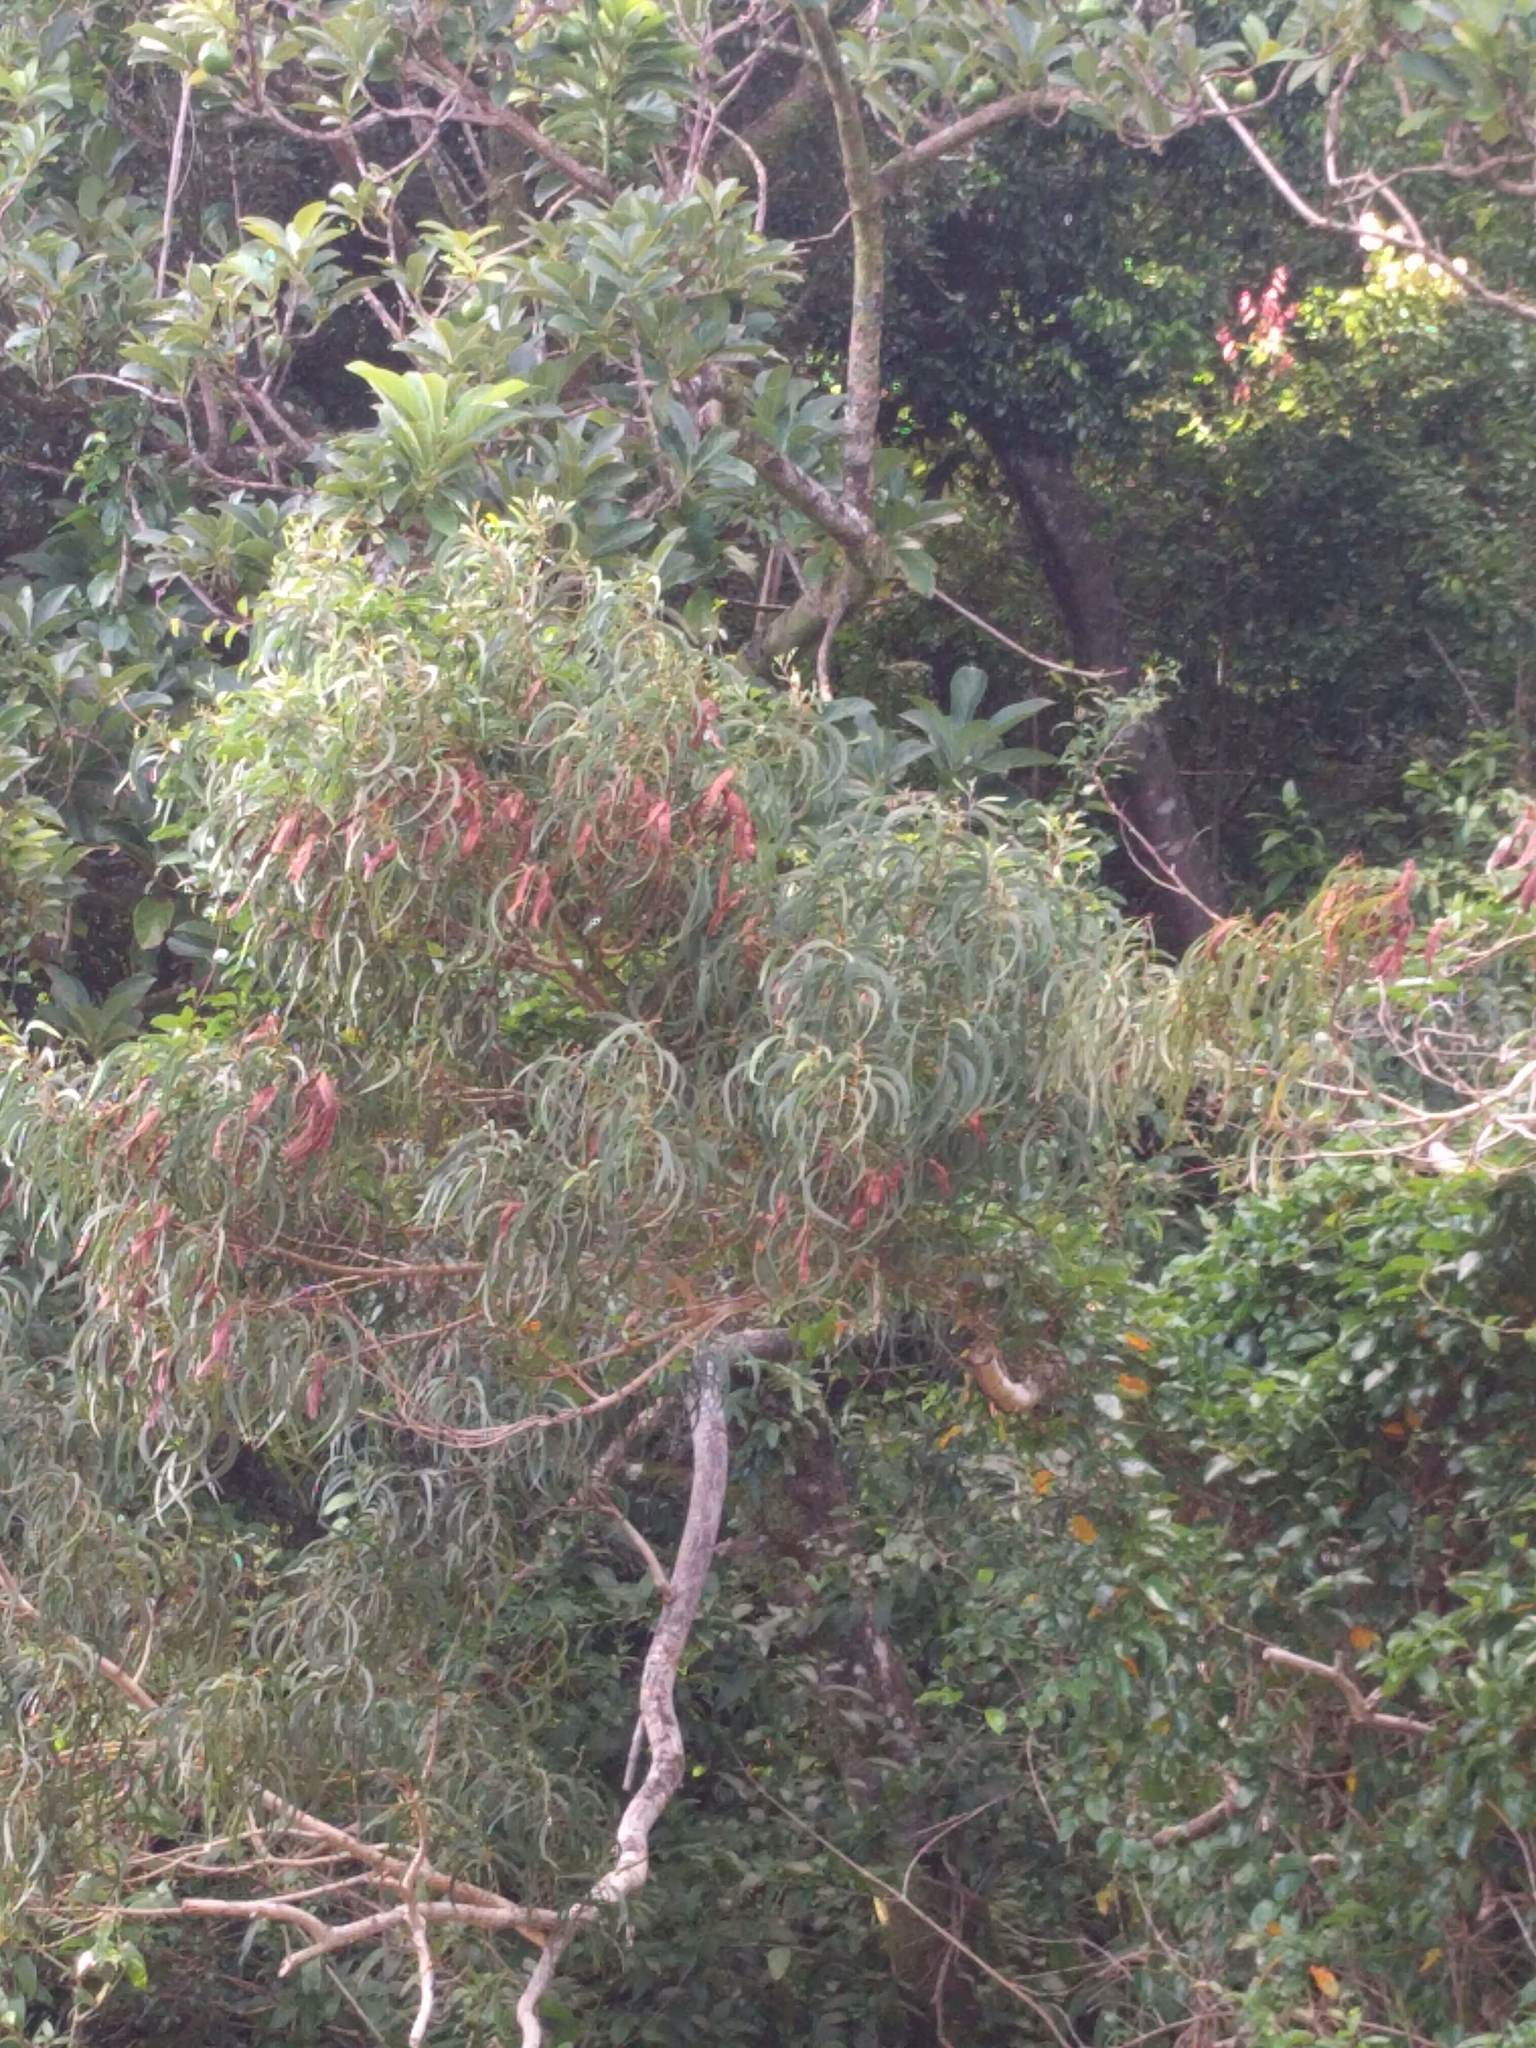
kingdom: Plantae
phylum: Tracheophyta
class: Magnoliopsida
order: Fabales
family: Fabaceae
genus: Acacia
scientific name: Acacia koa
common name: Gray koa
